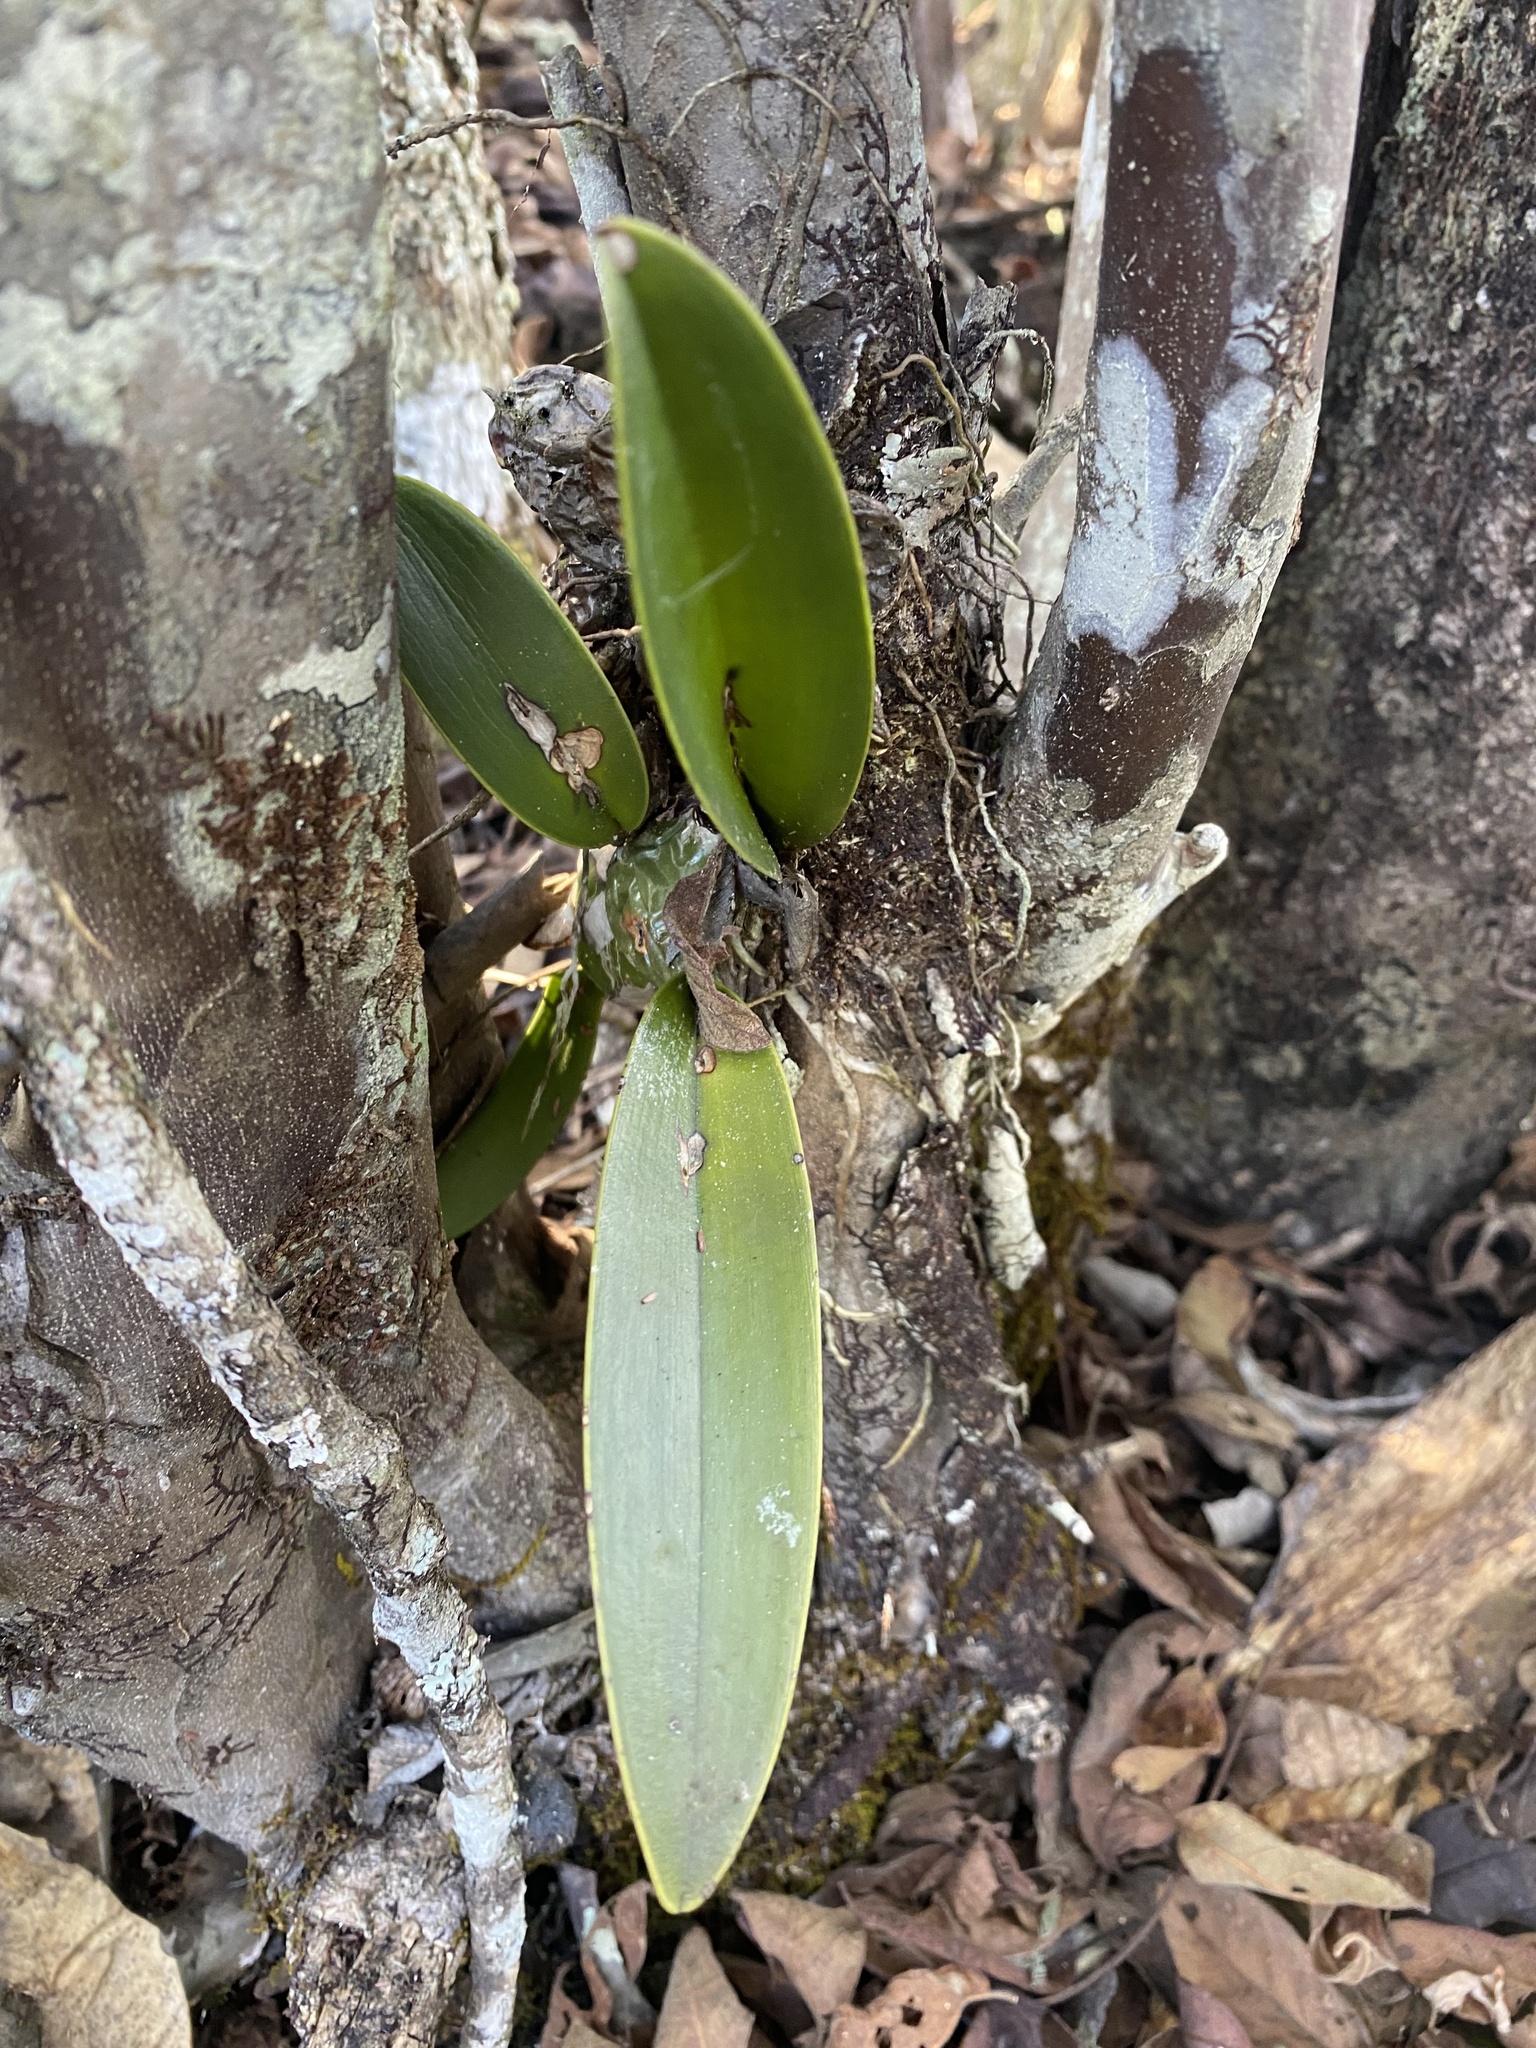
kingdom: Plantae
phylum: Tracheophyta
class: Liliopsida
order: Asparagales
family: Orchidaceae
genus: Laelia
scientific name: Laelia rubescens
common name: Pale laelia
